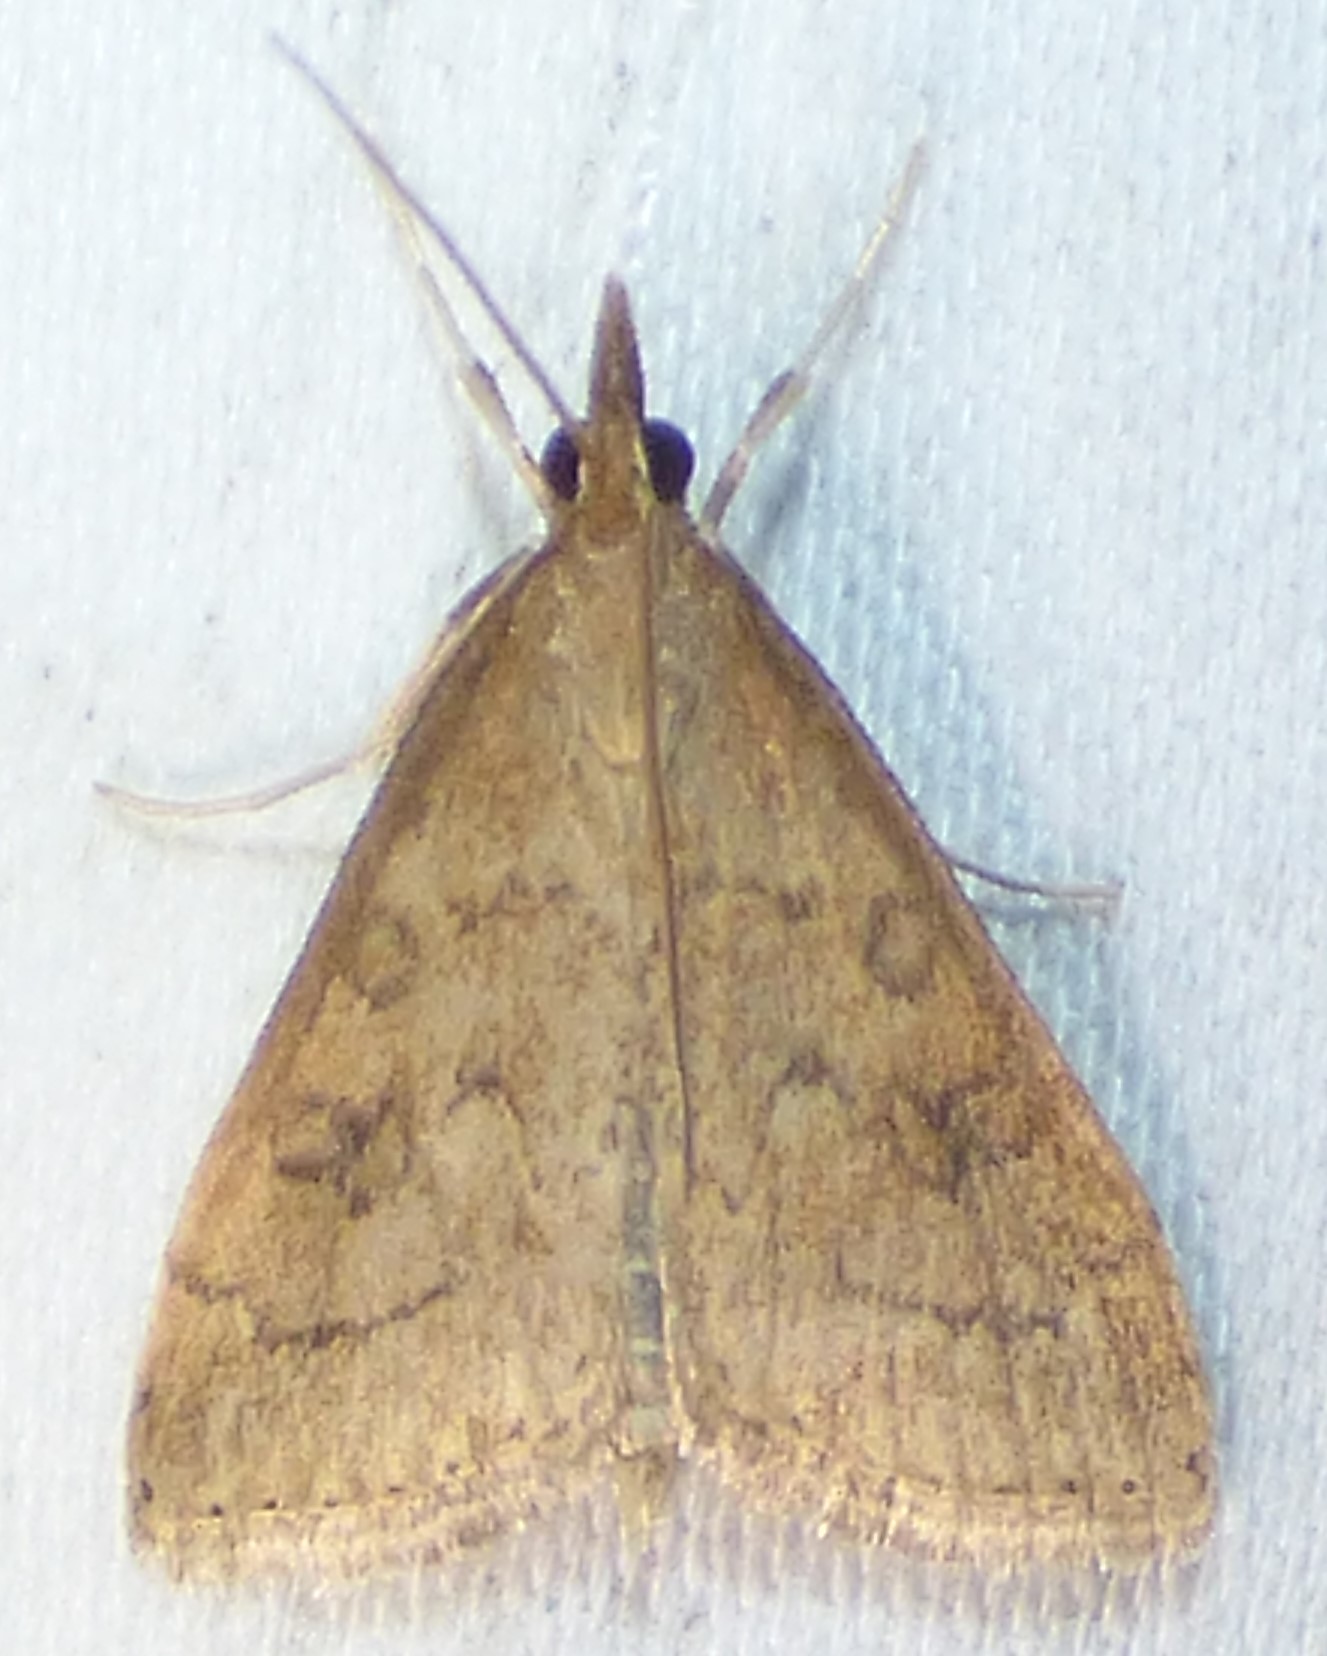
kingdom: Animalia
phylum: Arthropoda
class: Insecta
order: Lepidoptera
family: Crambidae
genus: Udea
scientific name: Udea rubigalis
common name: Celery leaftier moth
